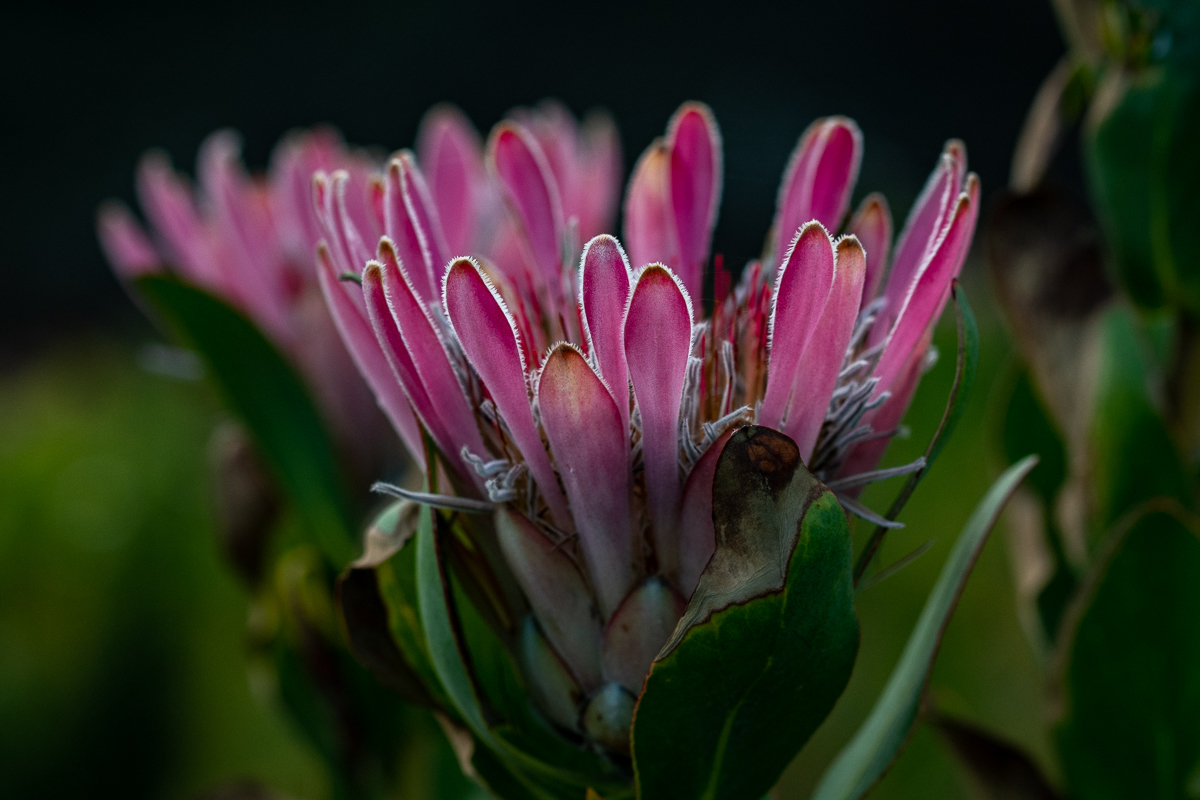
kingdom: Plantae
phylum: Tracheophyta
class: Magnoliopsida
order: Proteales
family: Proteaceae
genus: Protea
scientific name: Protea compacta
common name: Bot river protea
